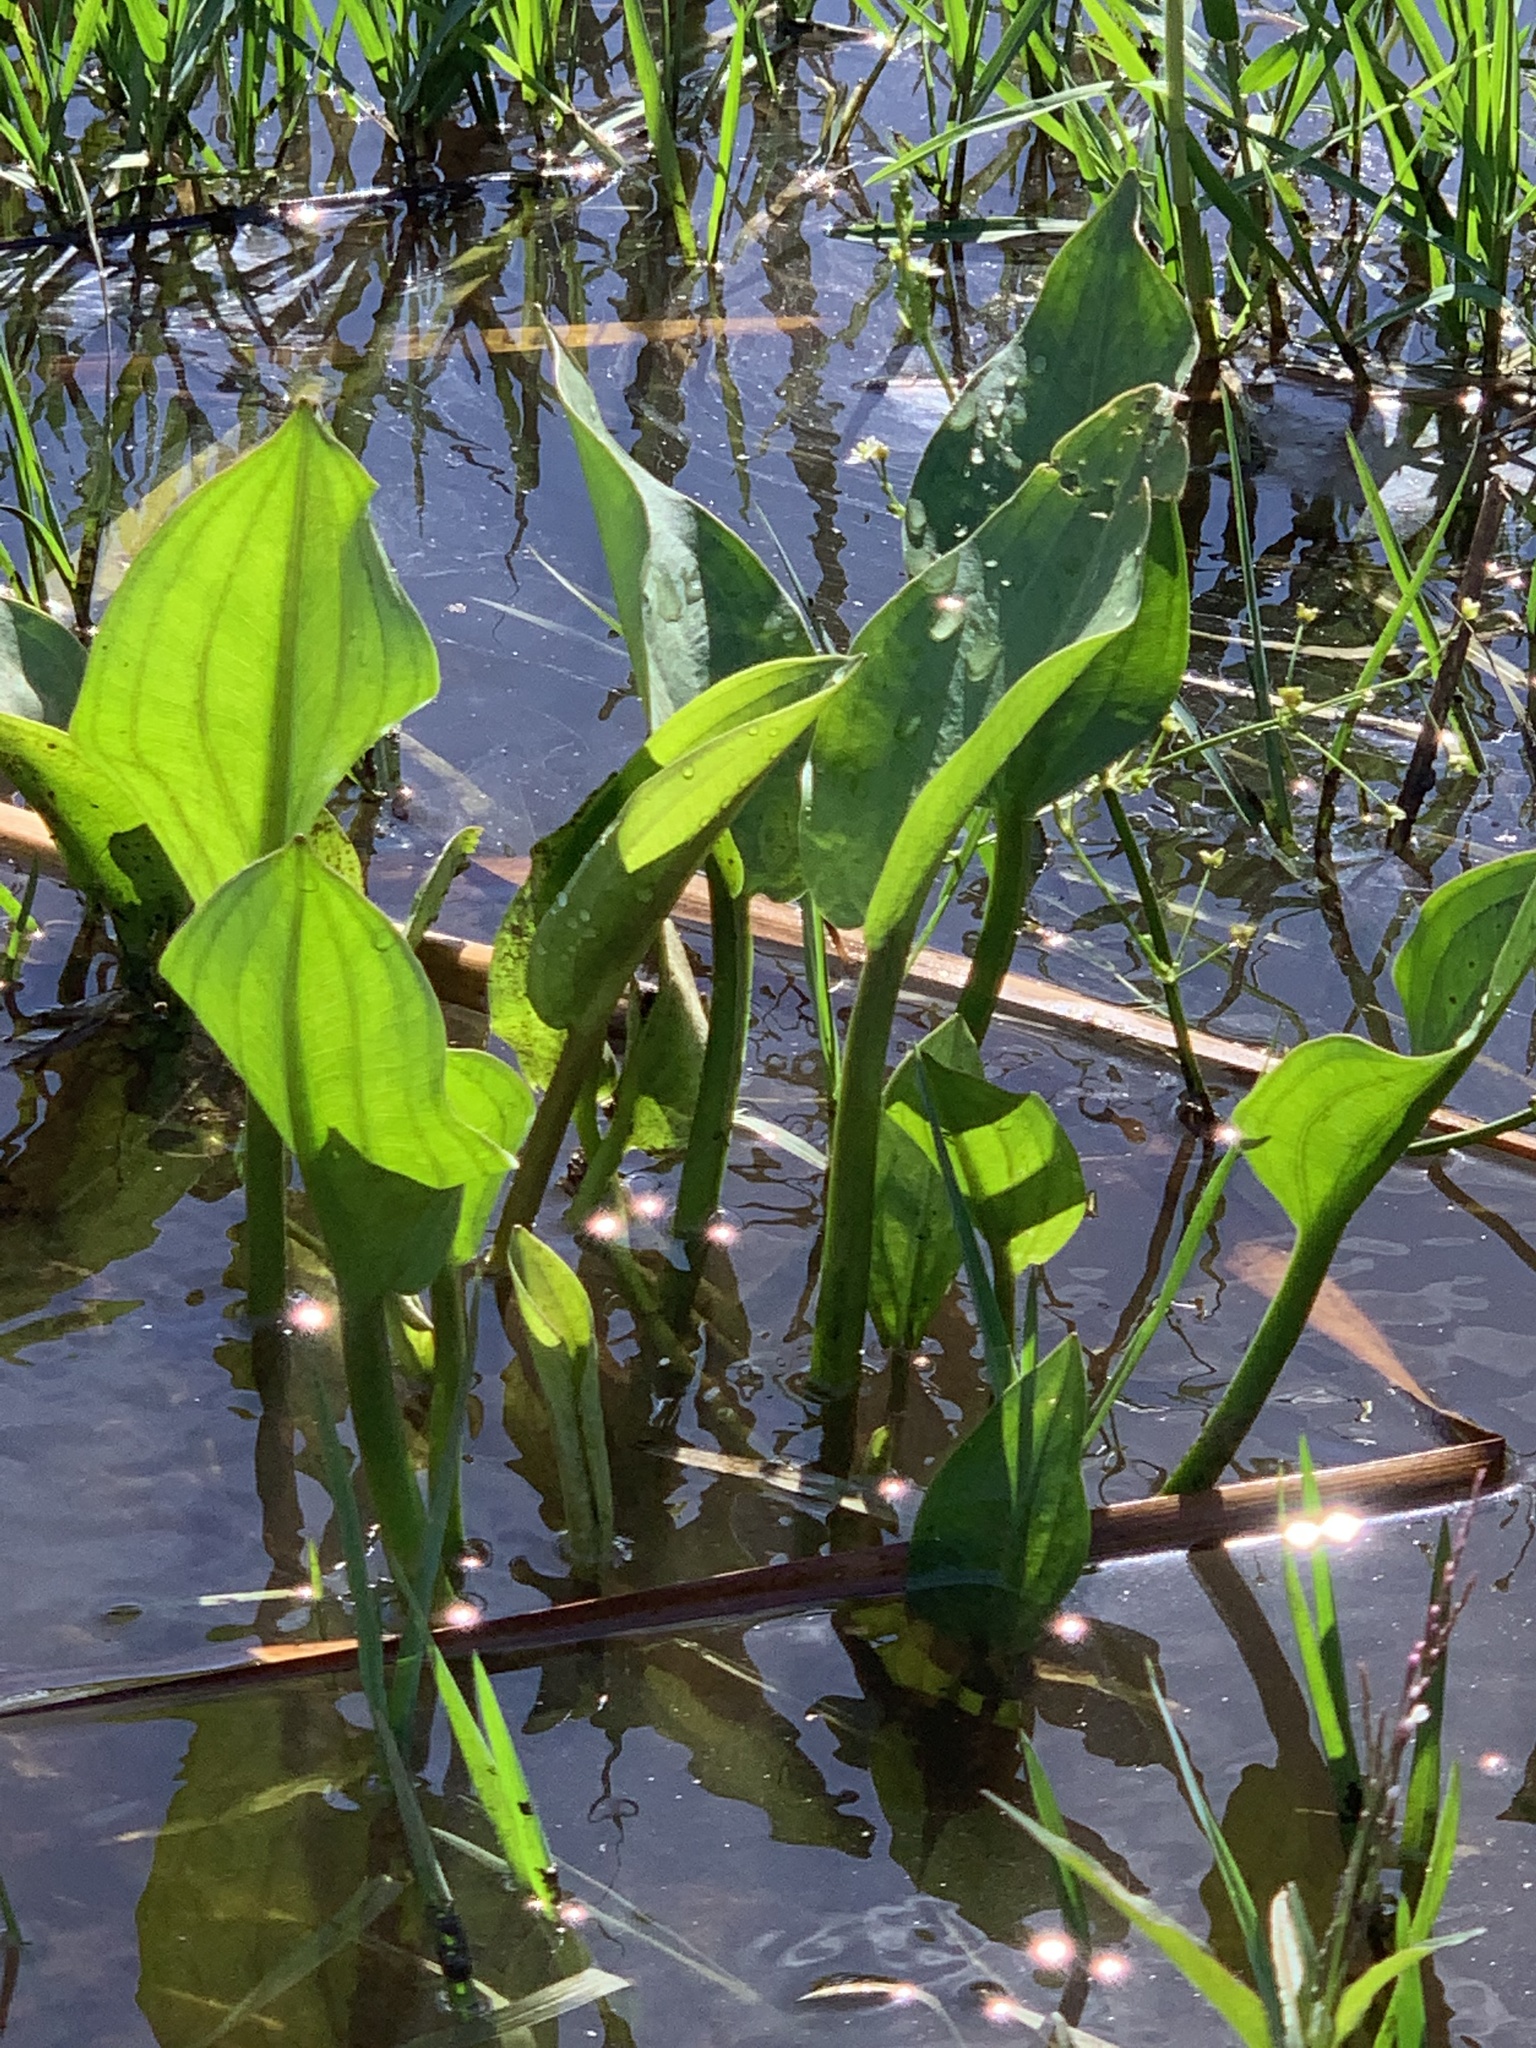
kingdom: Plantae
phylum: Tracheophyta
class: Liliopsida
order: Alismatales
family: Alismataceae
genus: Sagittaria
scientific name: Sagittaria platyphylla
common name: Broad-leaf arrowhead
